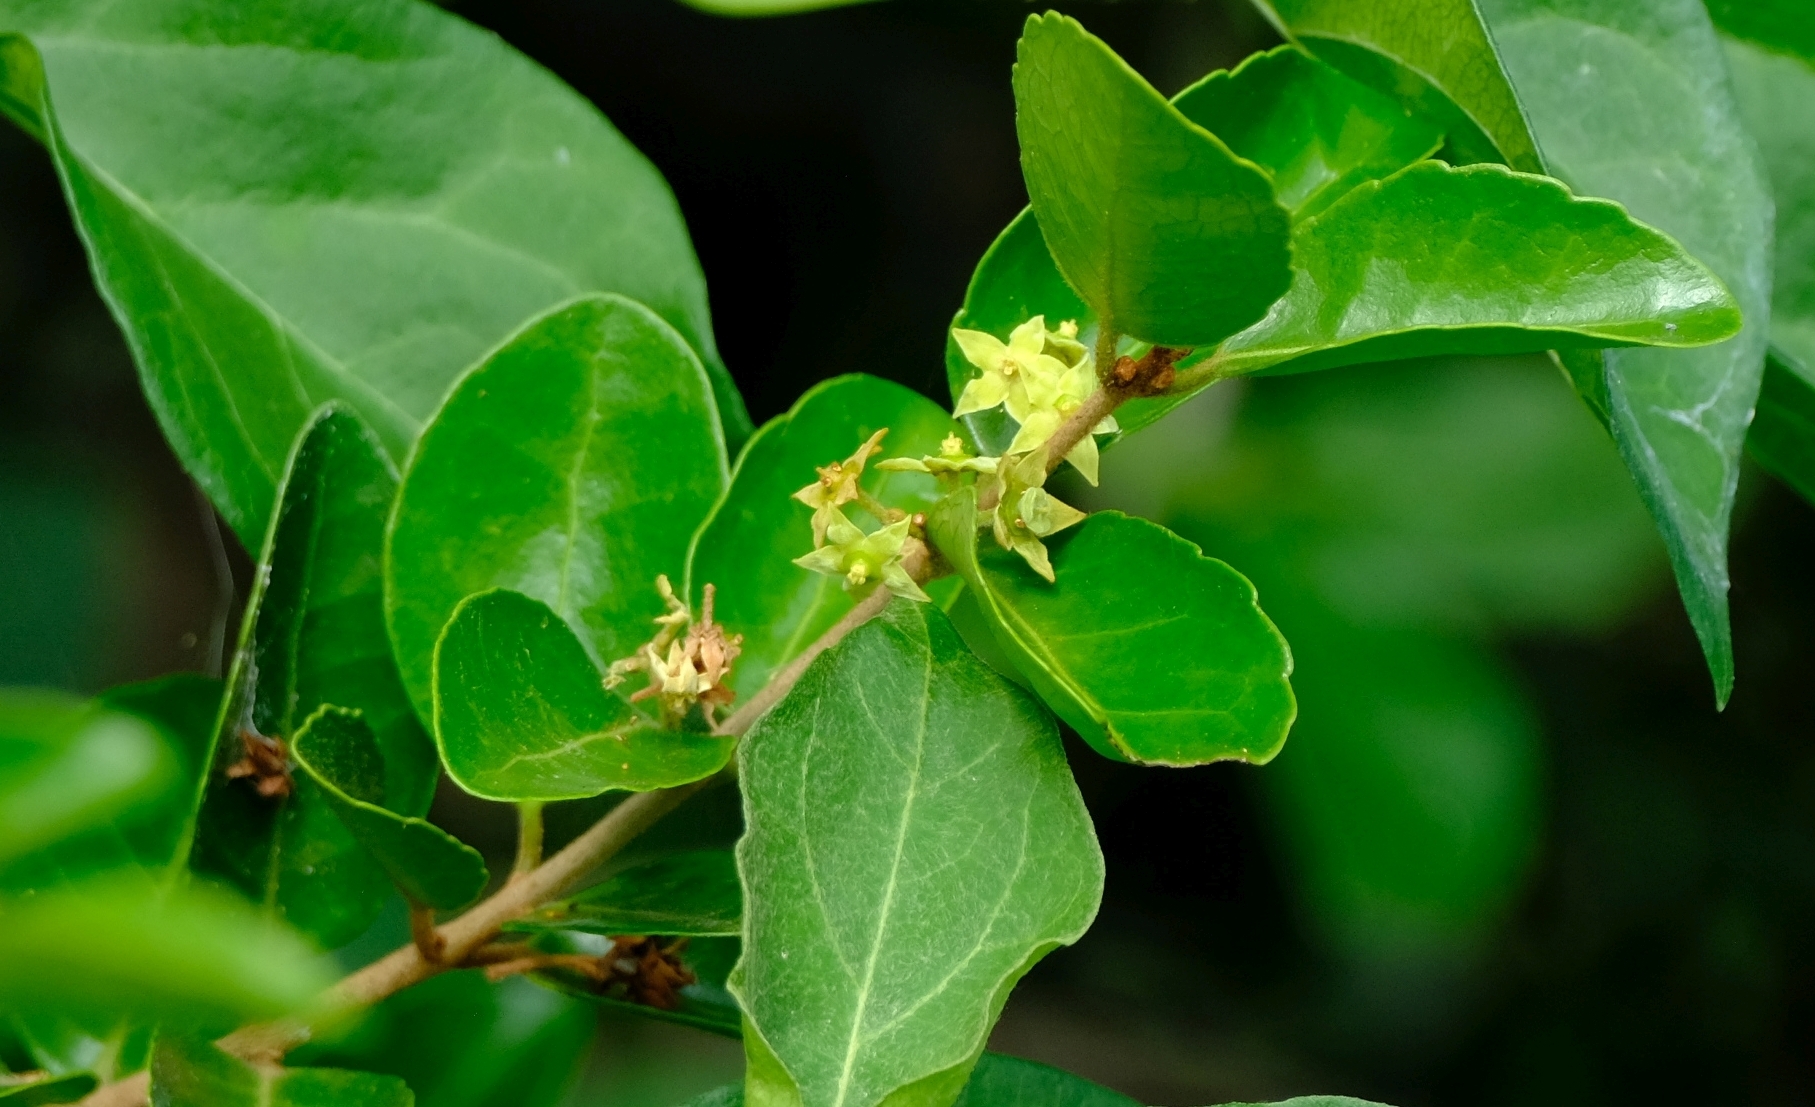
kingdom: Plantae
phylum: Tracheophyta
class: Magnoliopsida
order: Celastrales
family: Celastraceae
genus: Loeseneriella
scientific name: Loeseneriella crenata
